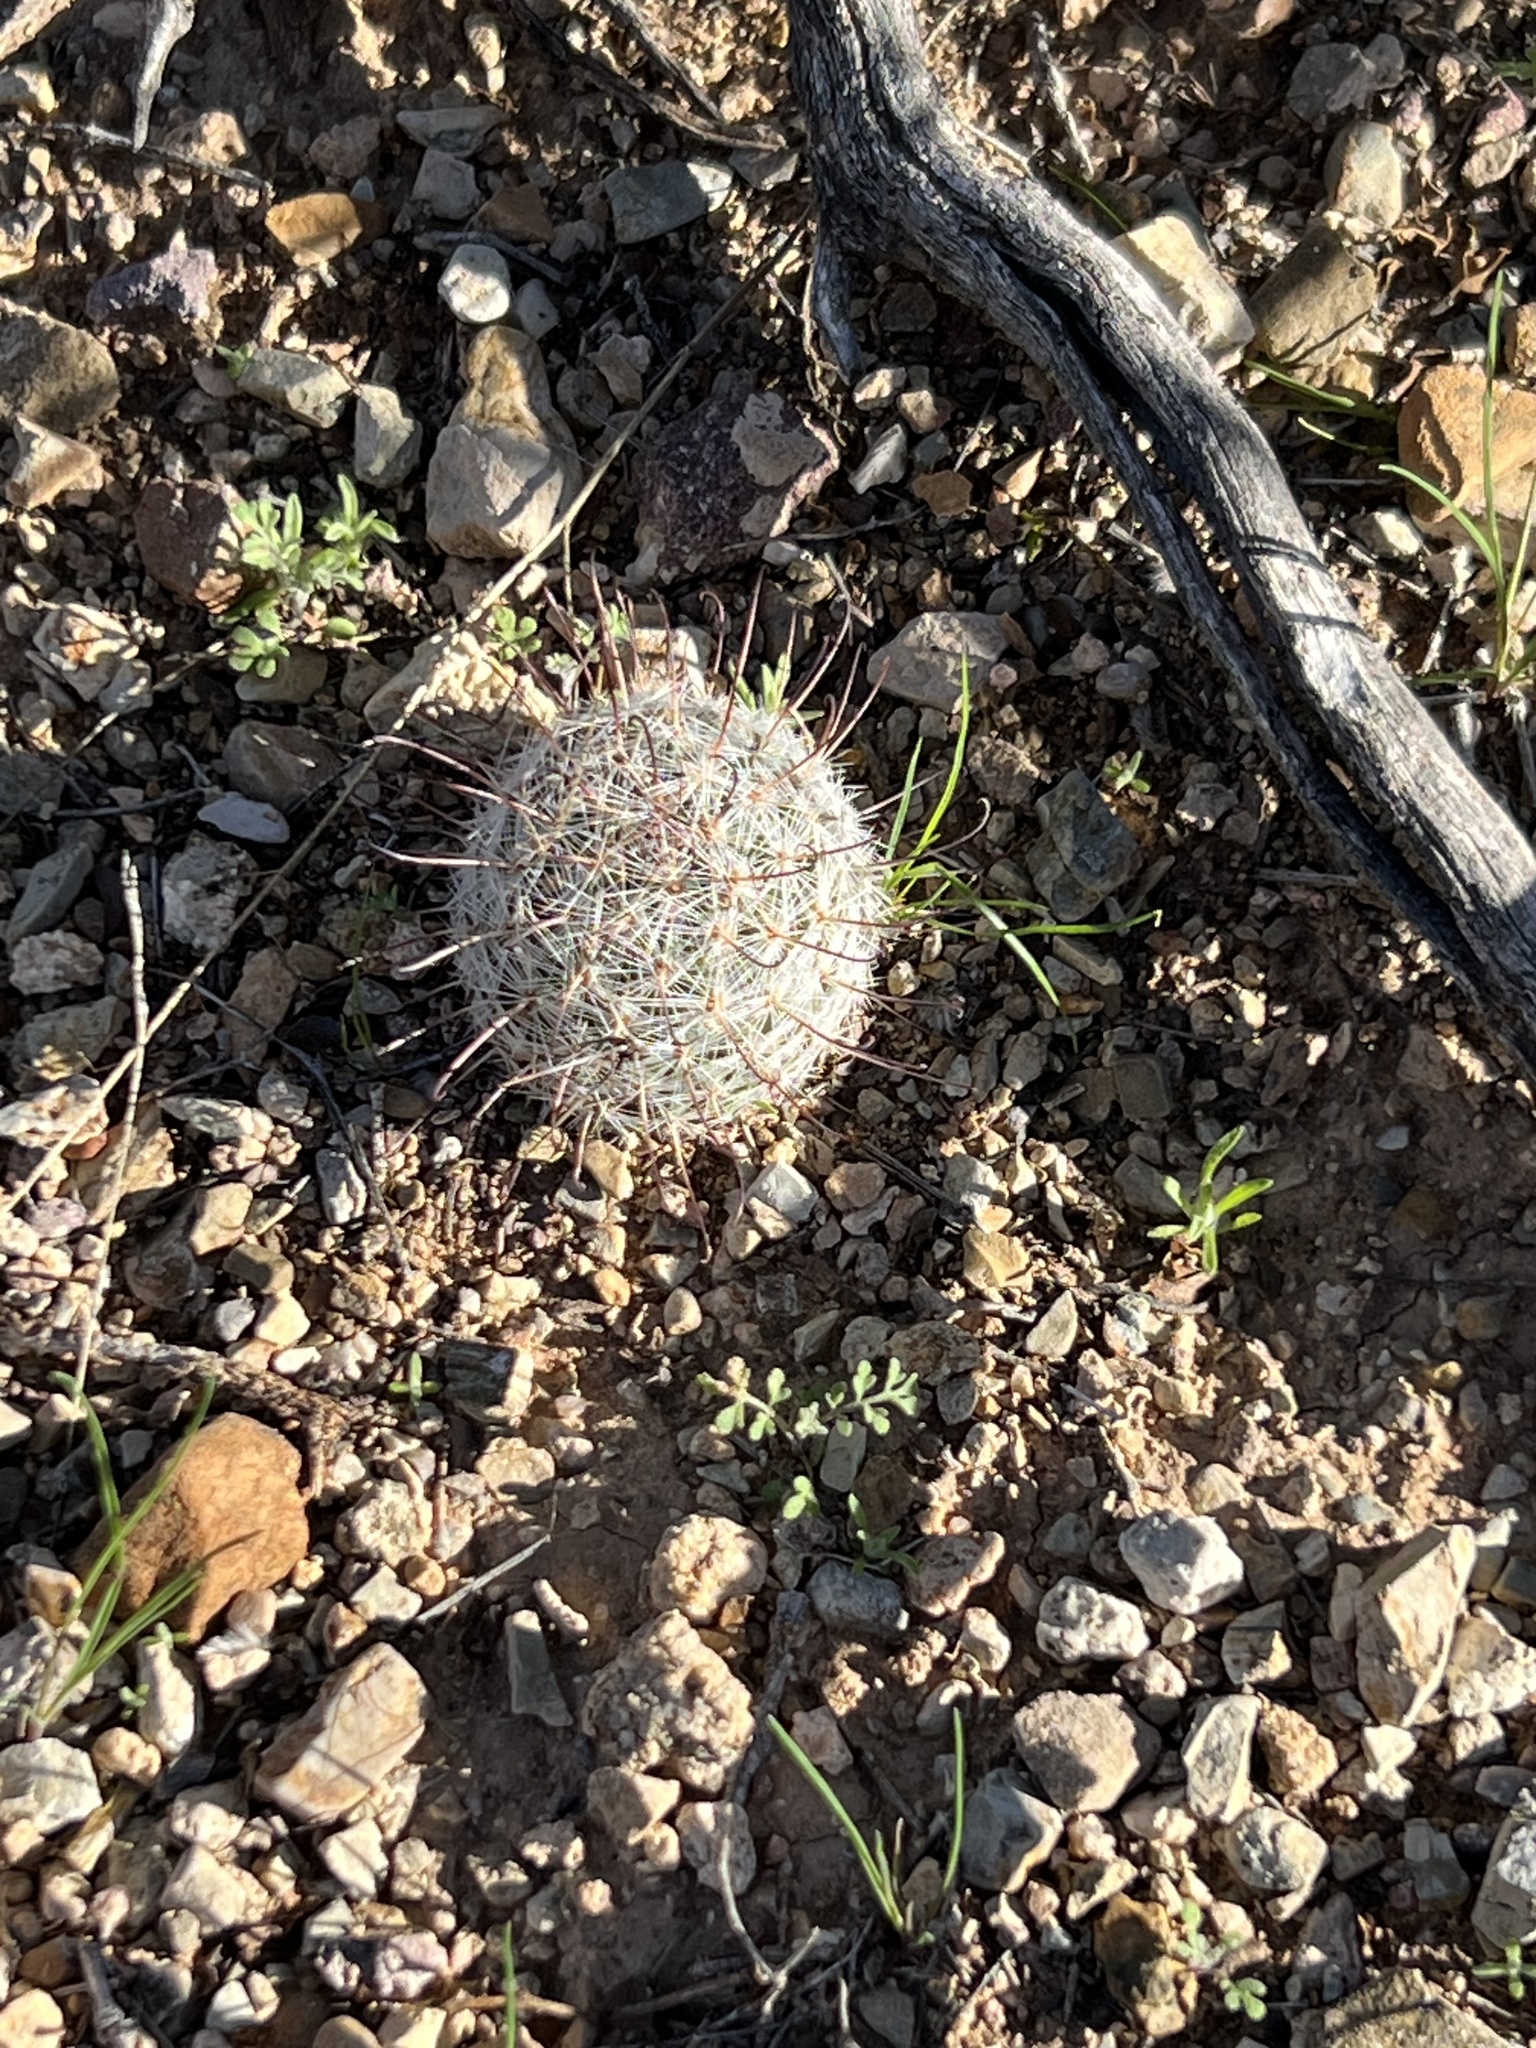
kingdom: Plantae
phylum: Tracheophyta
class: Magnoliopsida
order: Caryophyllales
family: Cactaceae
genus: Cochemiea
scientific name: Cochemiea grahamii
